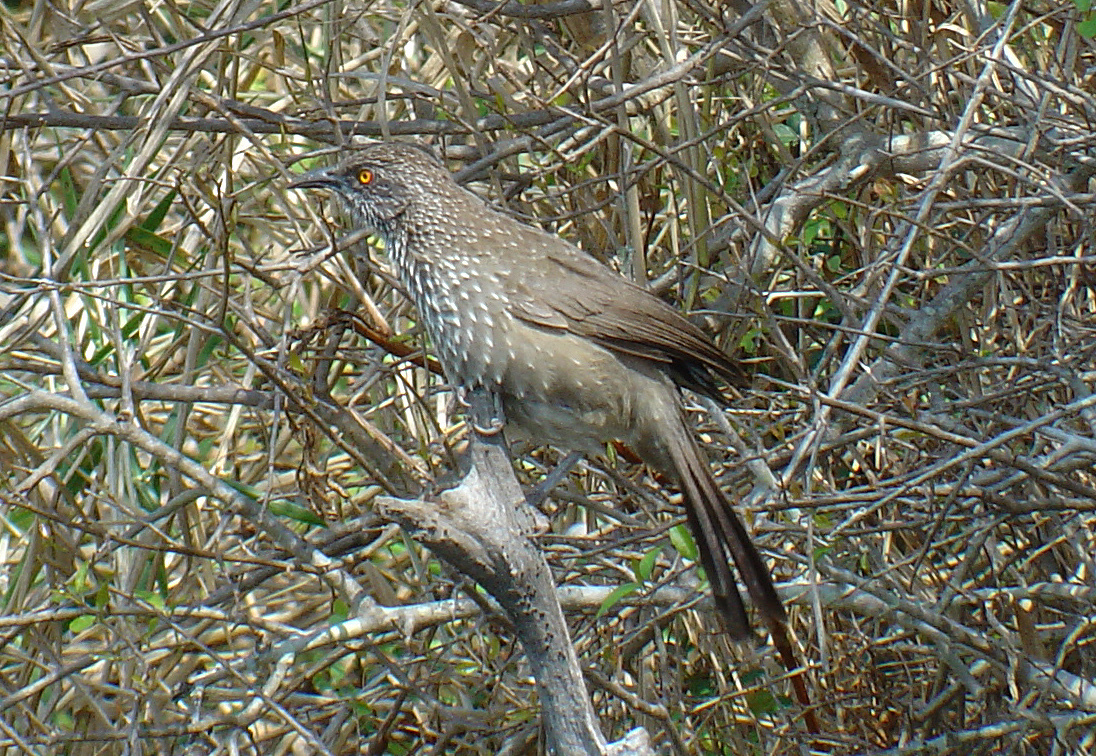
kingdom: Animalia
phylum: Chordata
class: Aves
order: Passeriformes
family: Leiothrichidae
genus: Turdoides
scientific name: Turdoides jardineii
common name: Arrow-marked babbler
